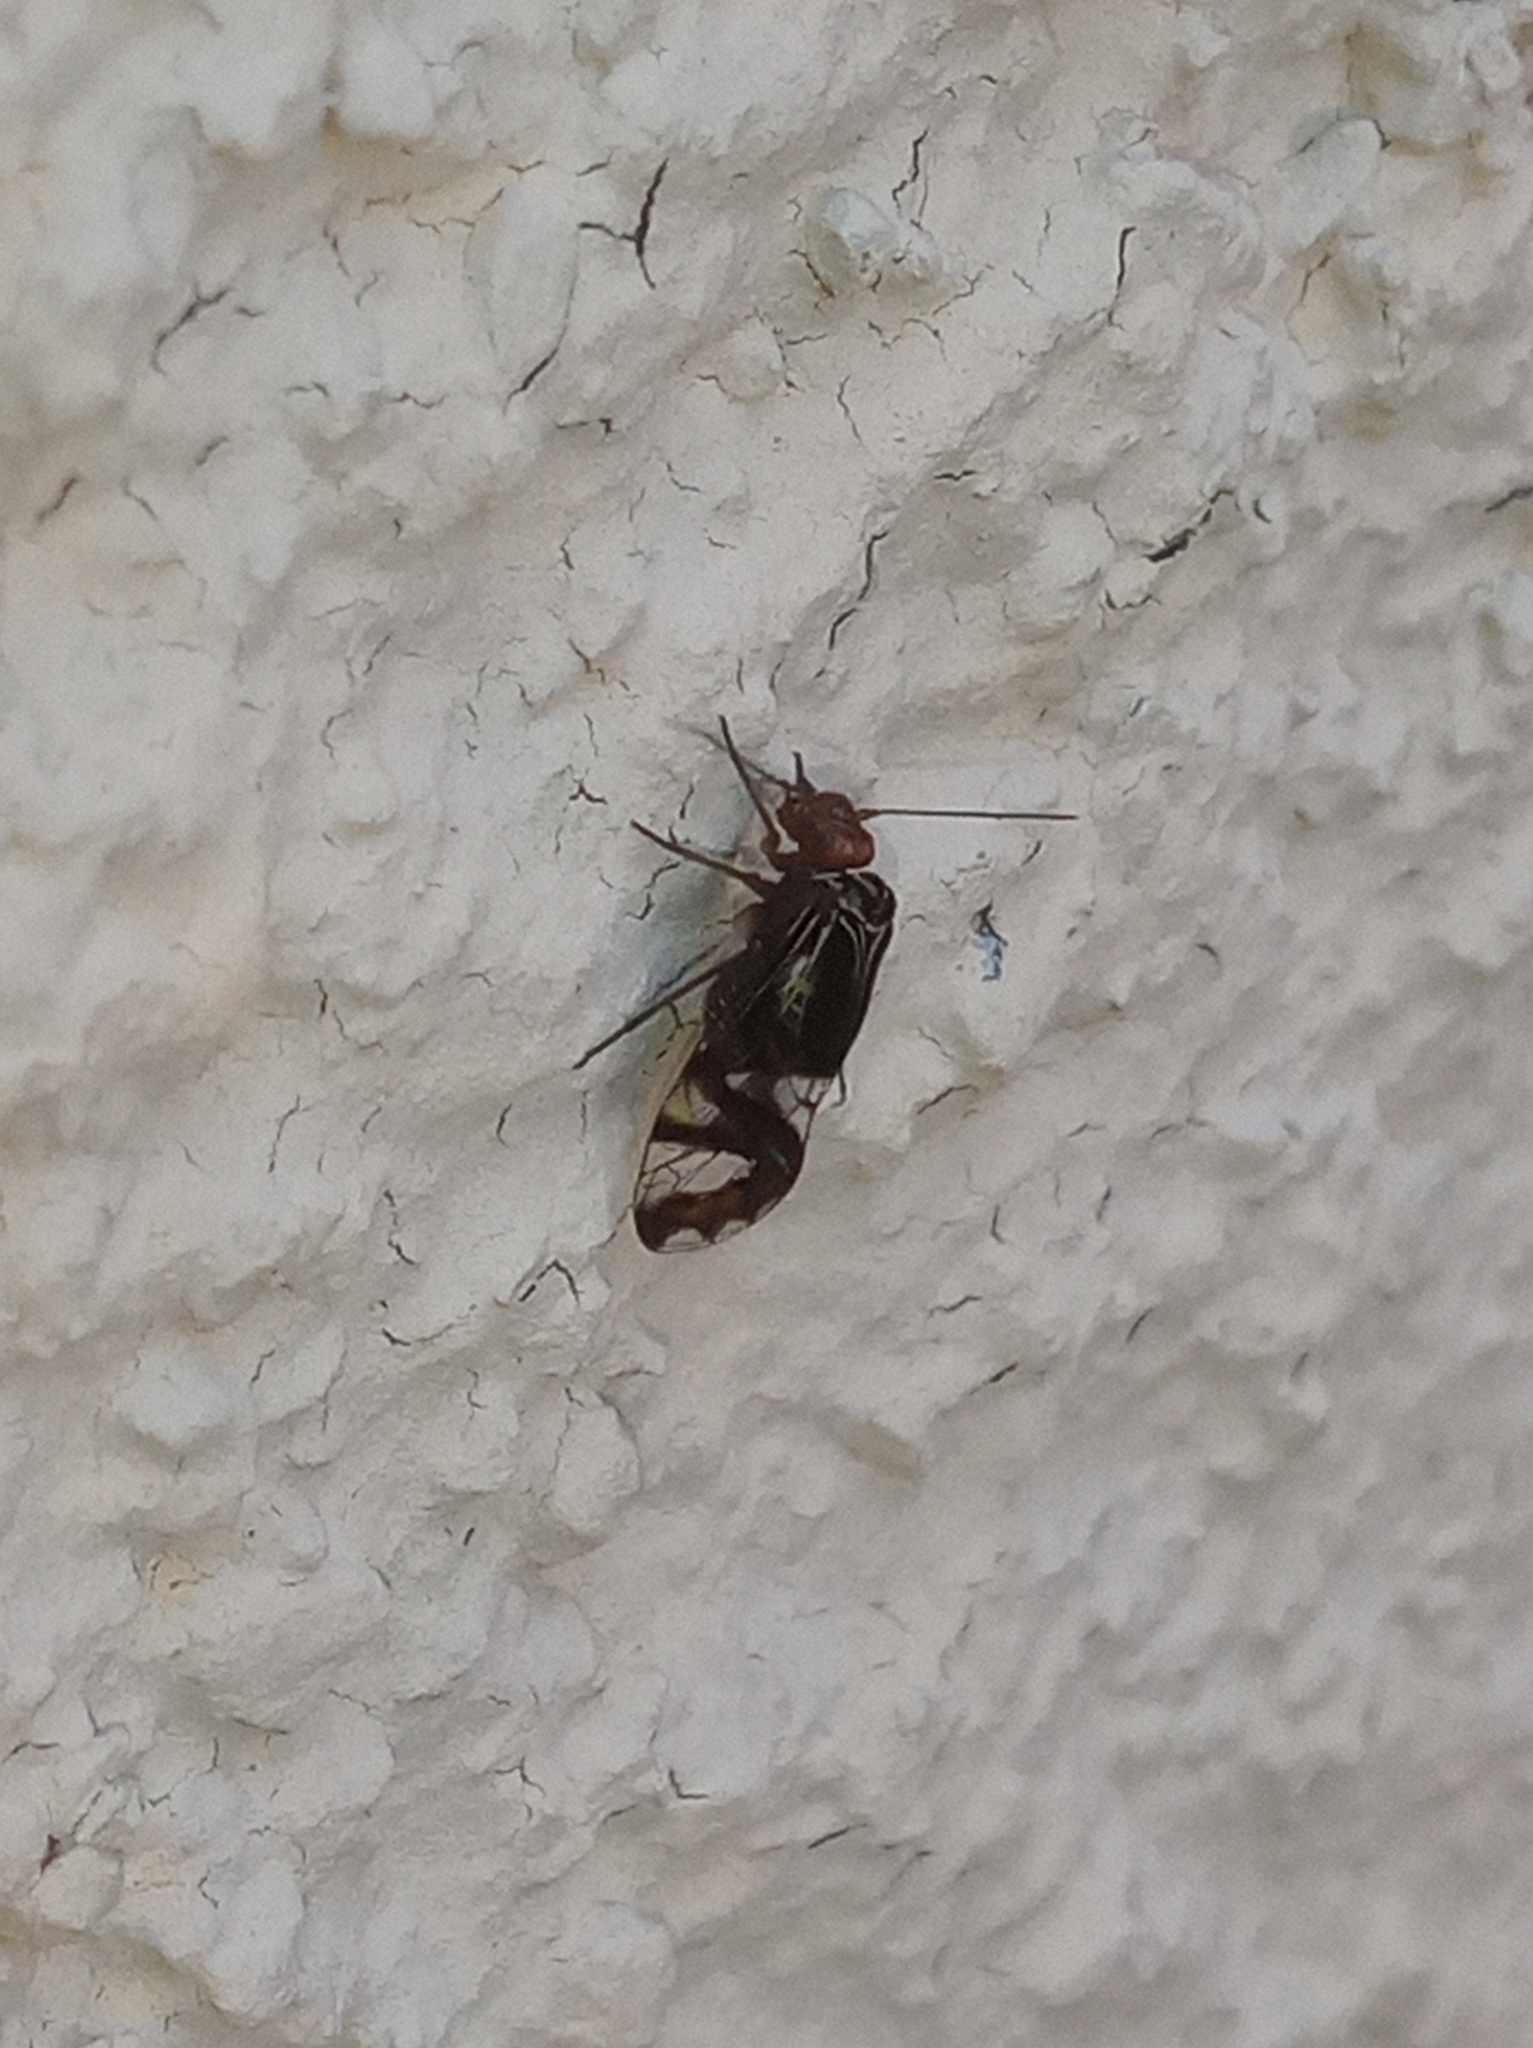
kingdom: Animalia
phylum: Arthropoda
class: Insecta
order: Psocodea
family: Psocidae
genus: Cerastipsocus
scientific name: Cerastipsocus trifasciatus
